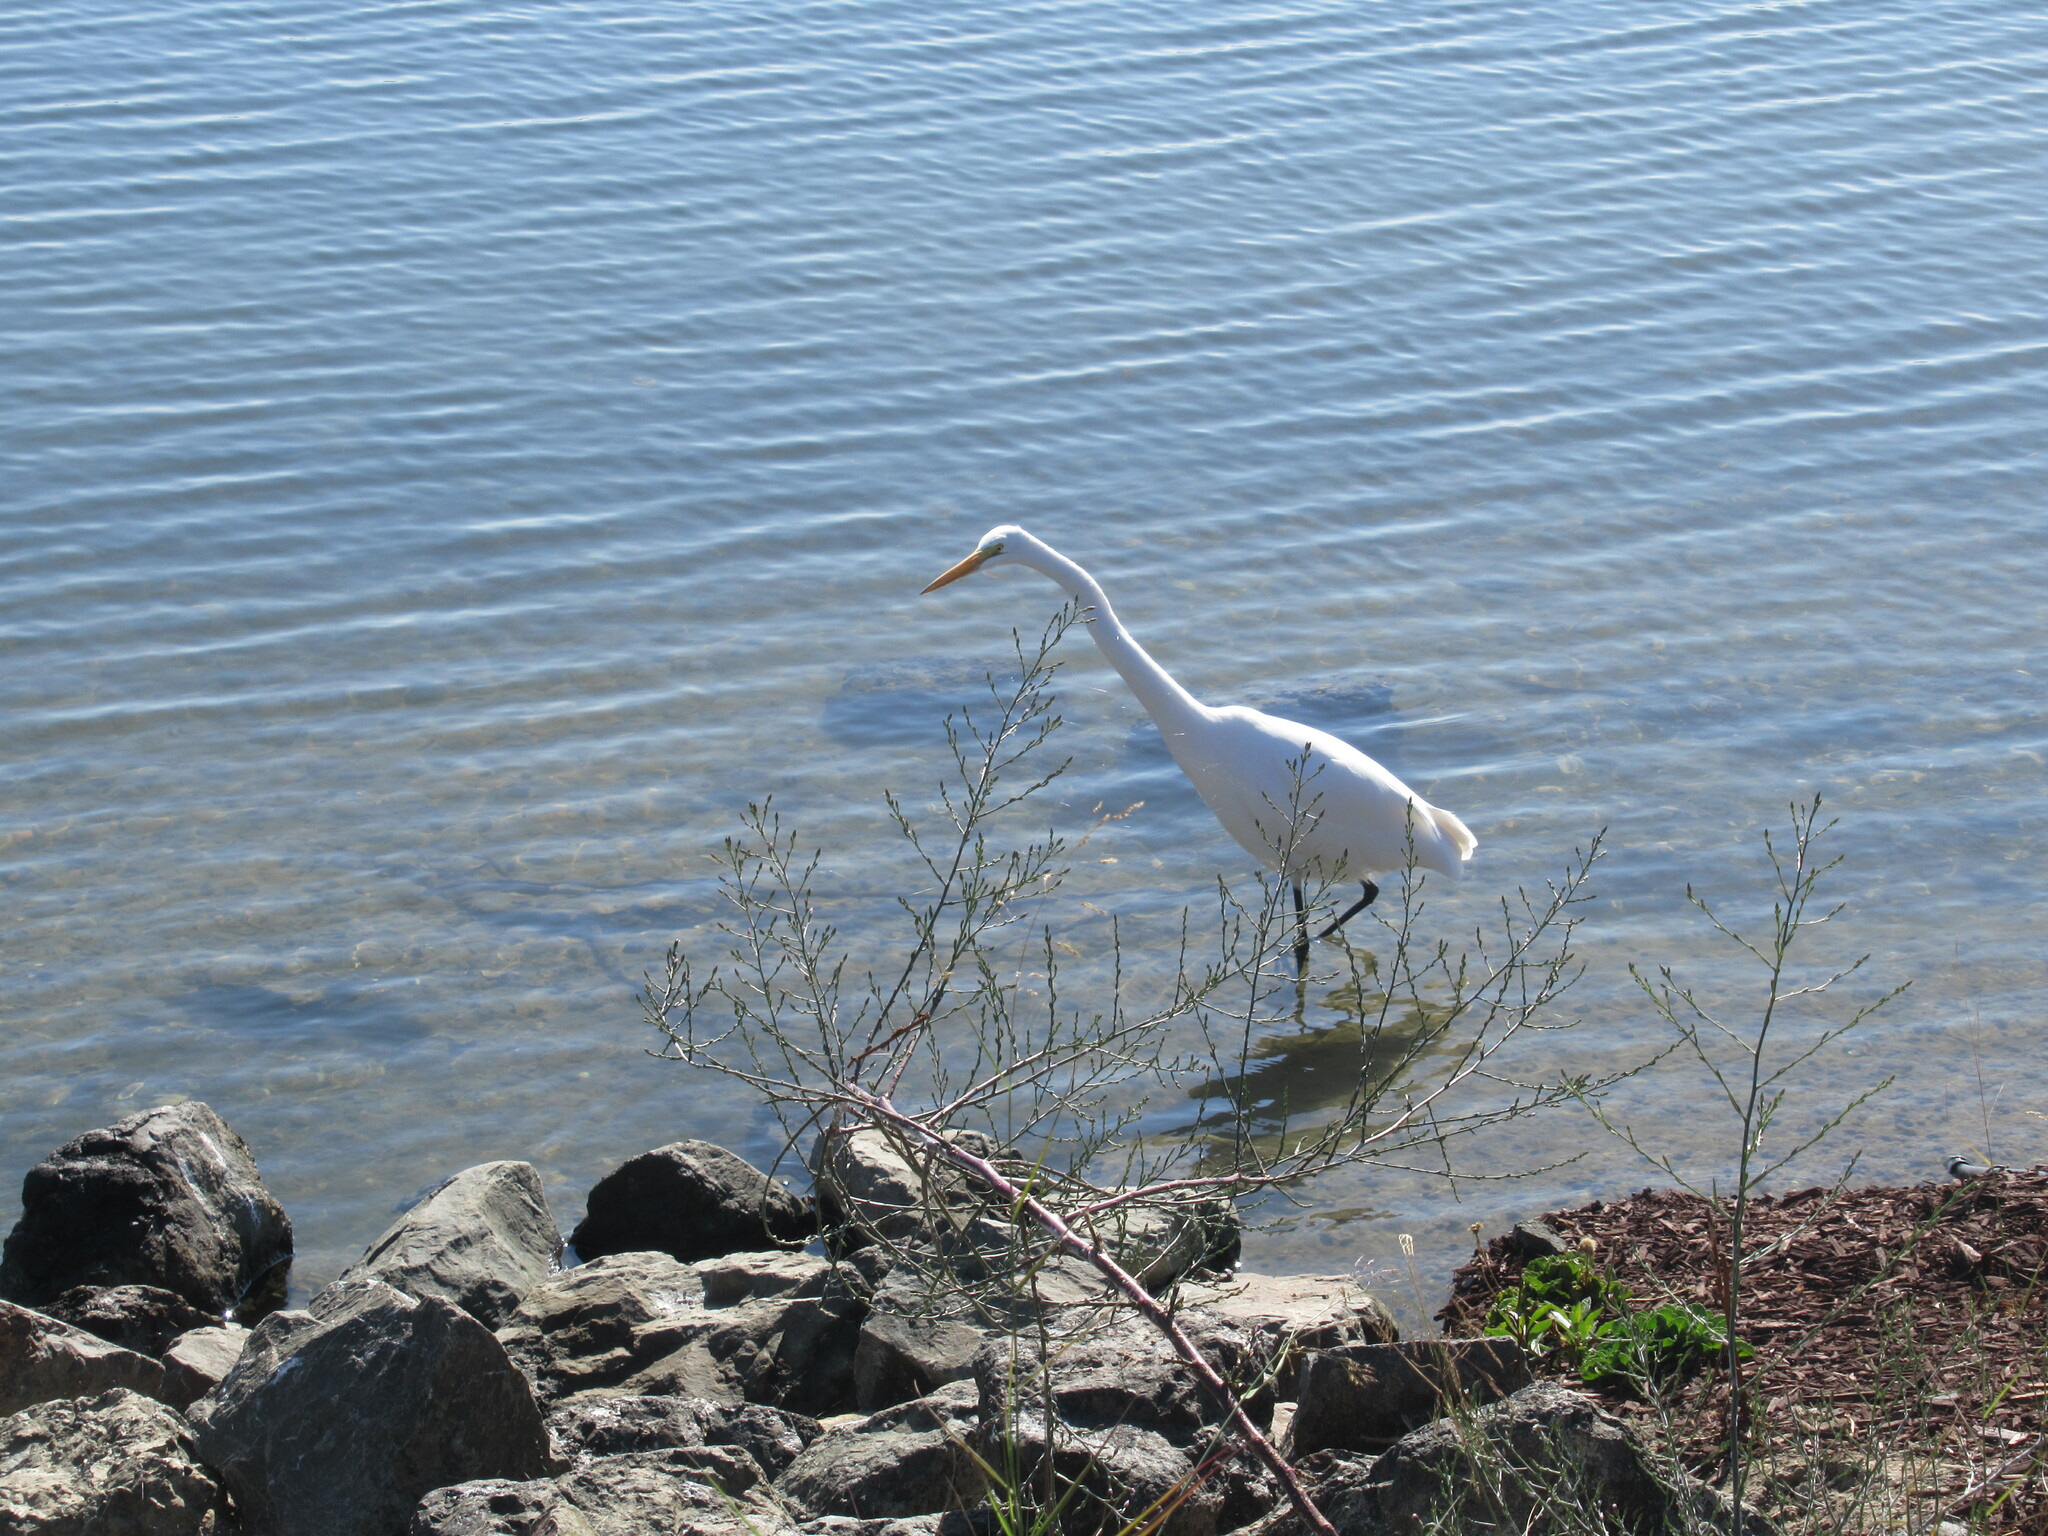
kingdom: Animalia
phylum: Chordata
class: Aves
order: Pelecaniformes
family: Ardeidae
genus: Ardea
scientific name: Ardea alba
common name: Great egret
